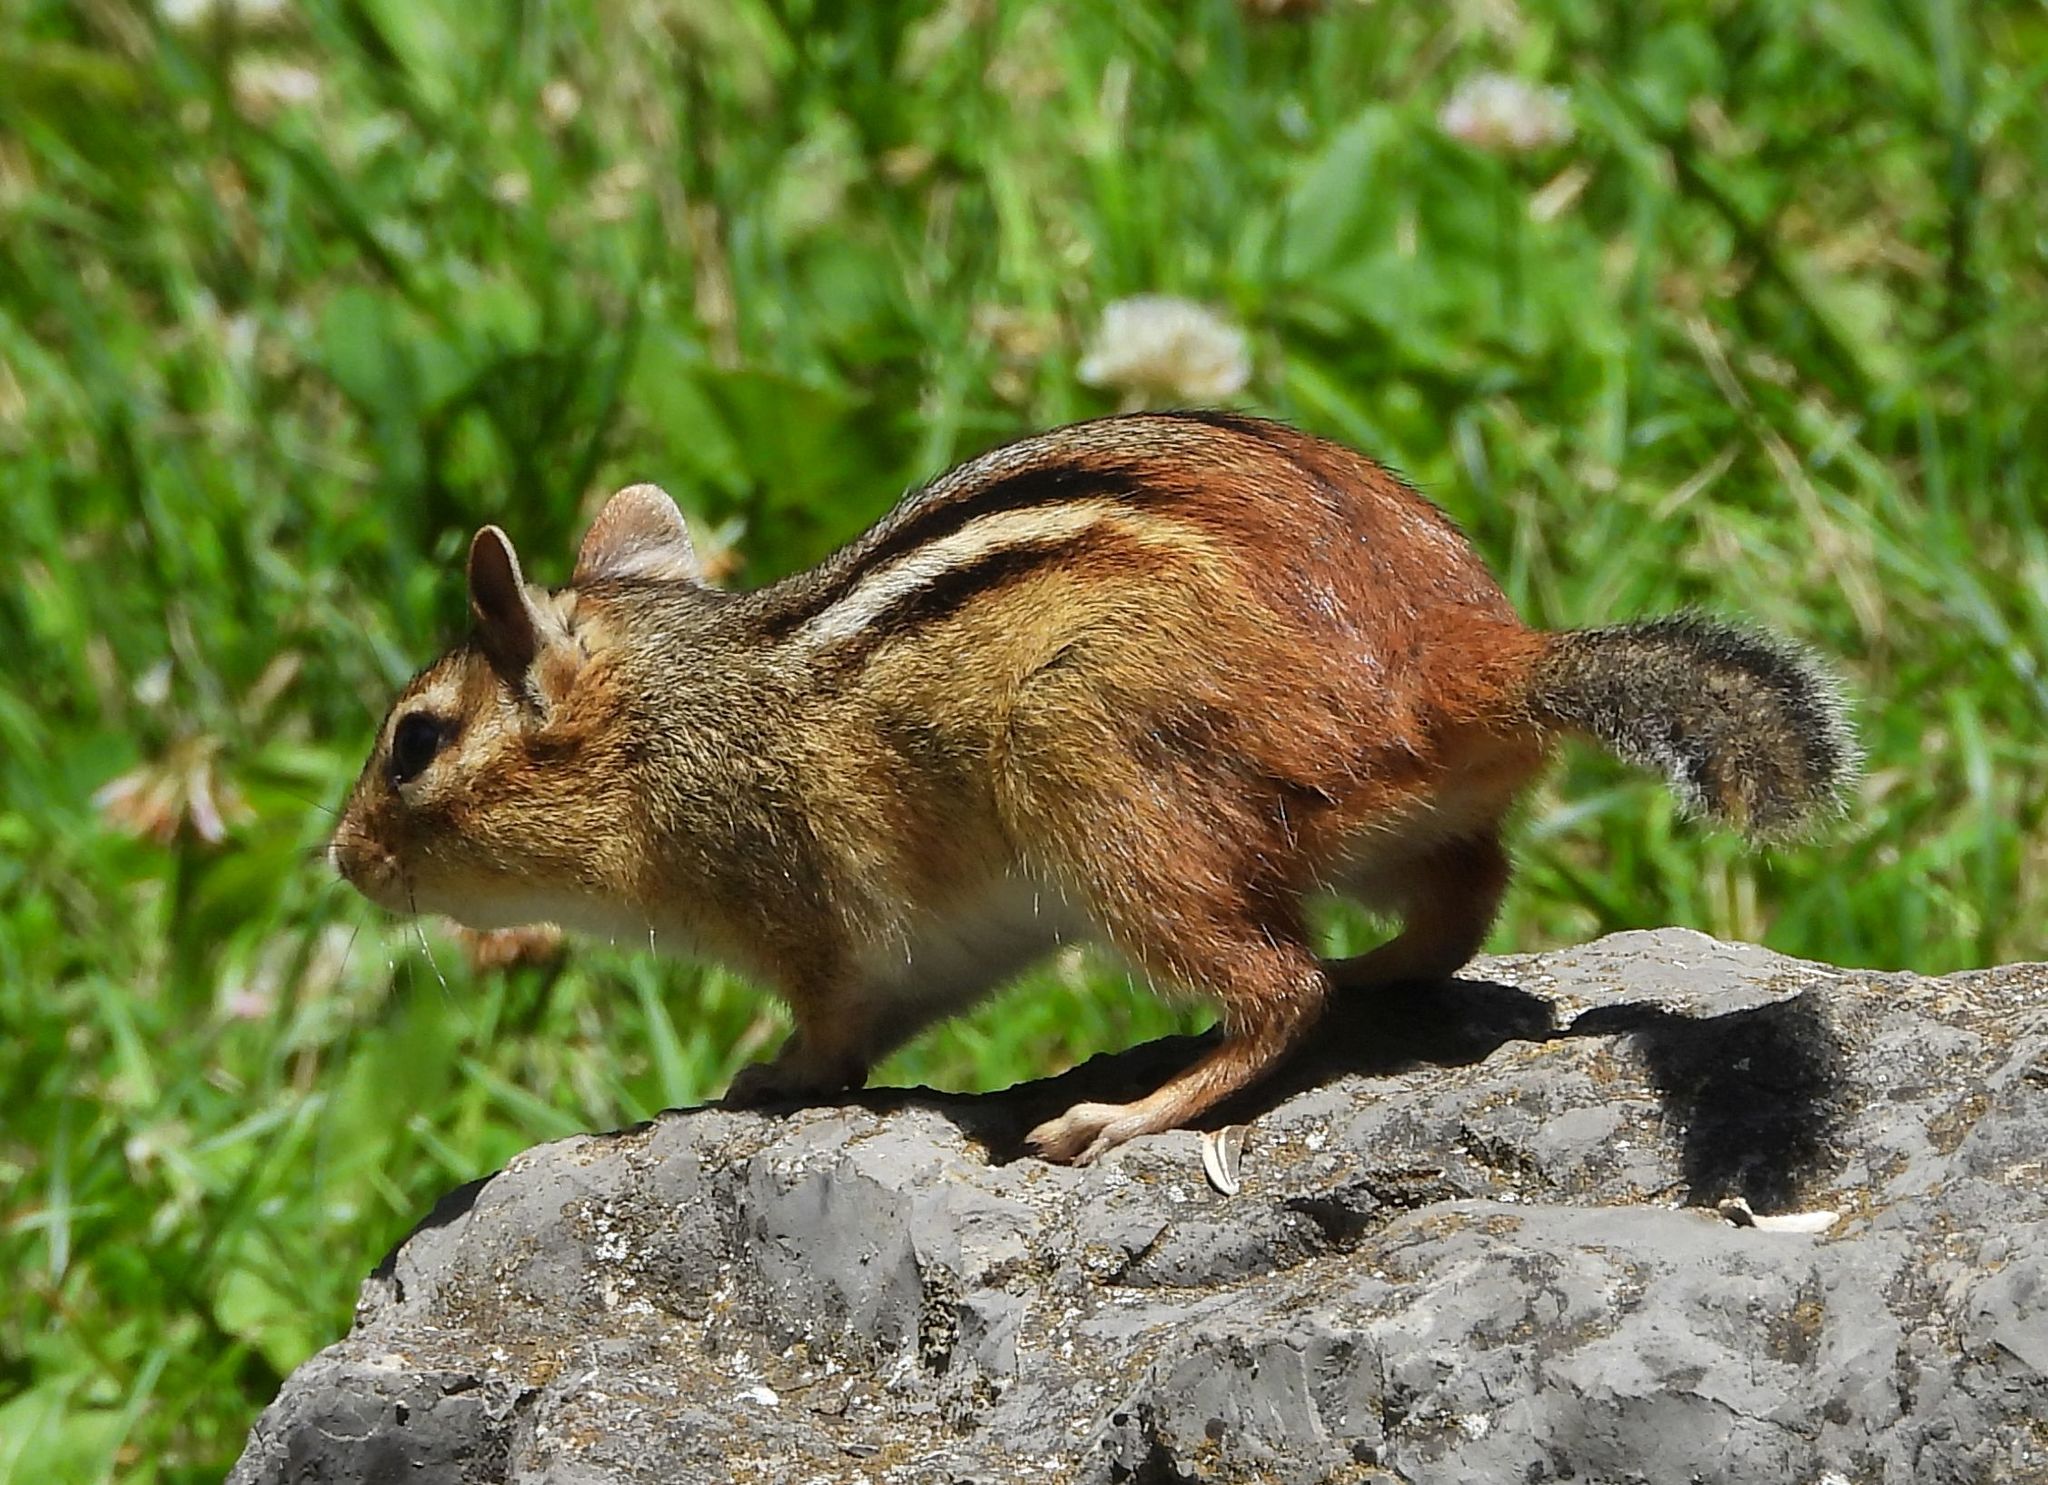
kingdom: Animalia
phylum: Chordata
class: Mammalia
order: Rodentia
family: Sciuridae
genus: Tamias
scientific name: Tamias striatus
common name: Eastern chipmunk
